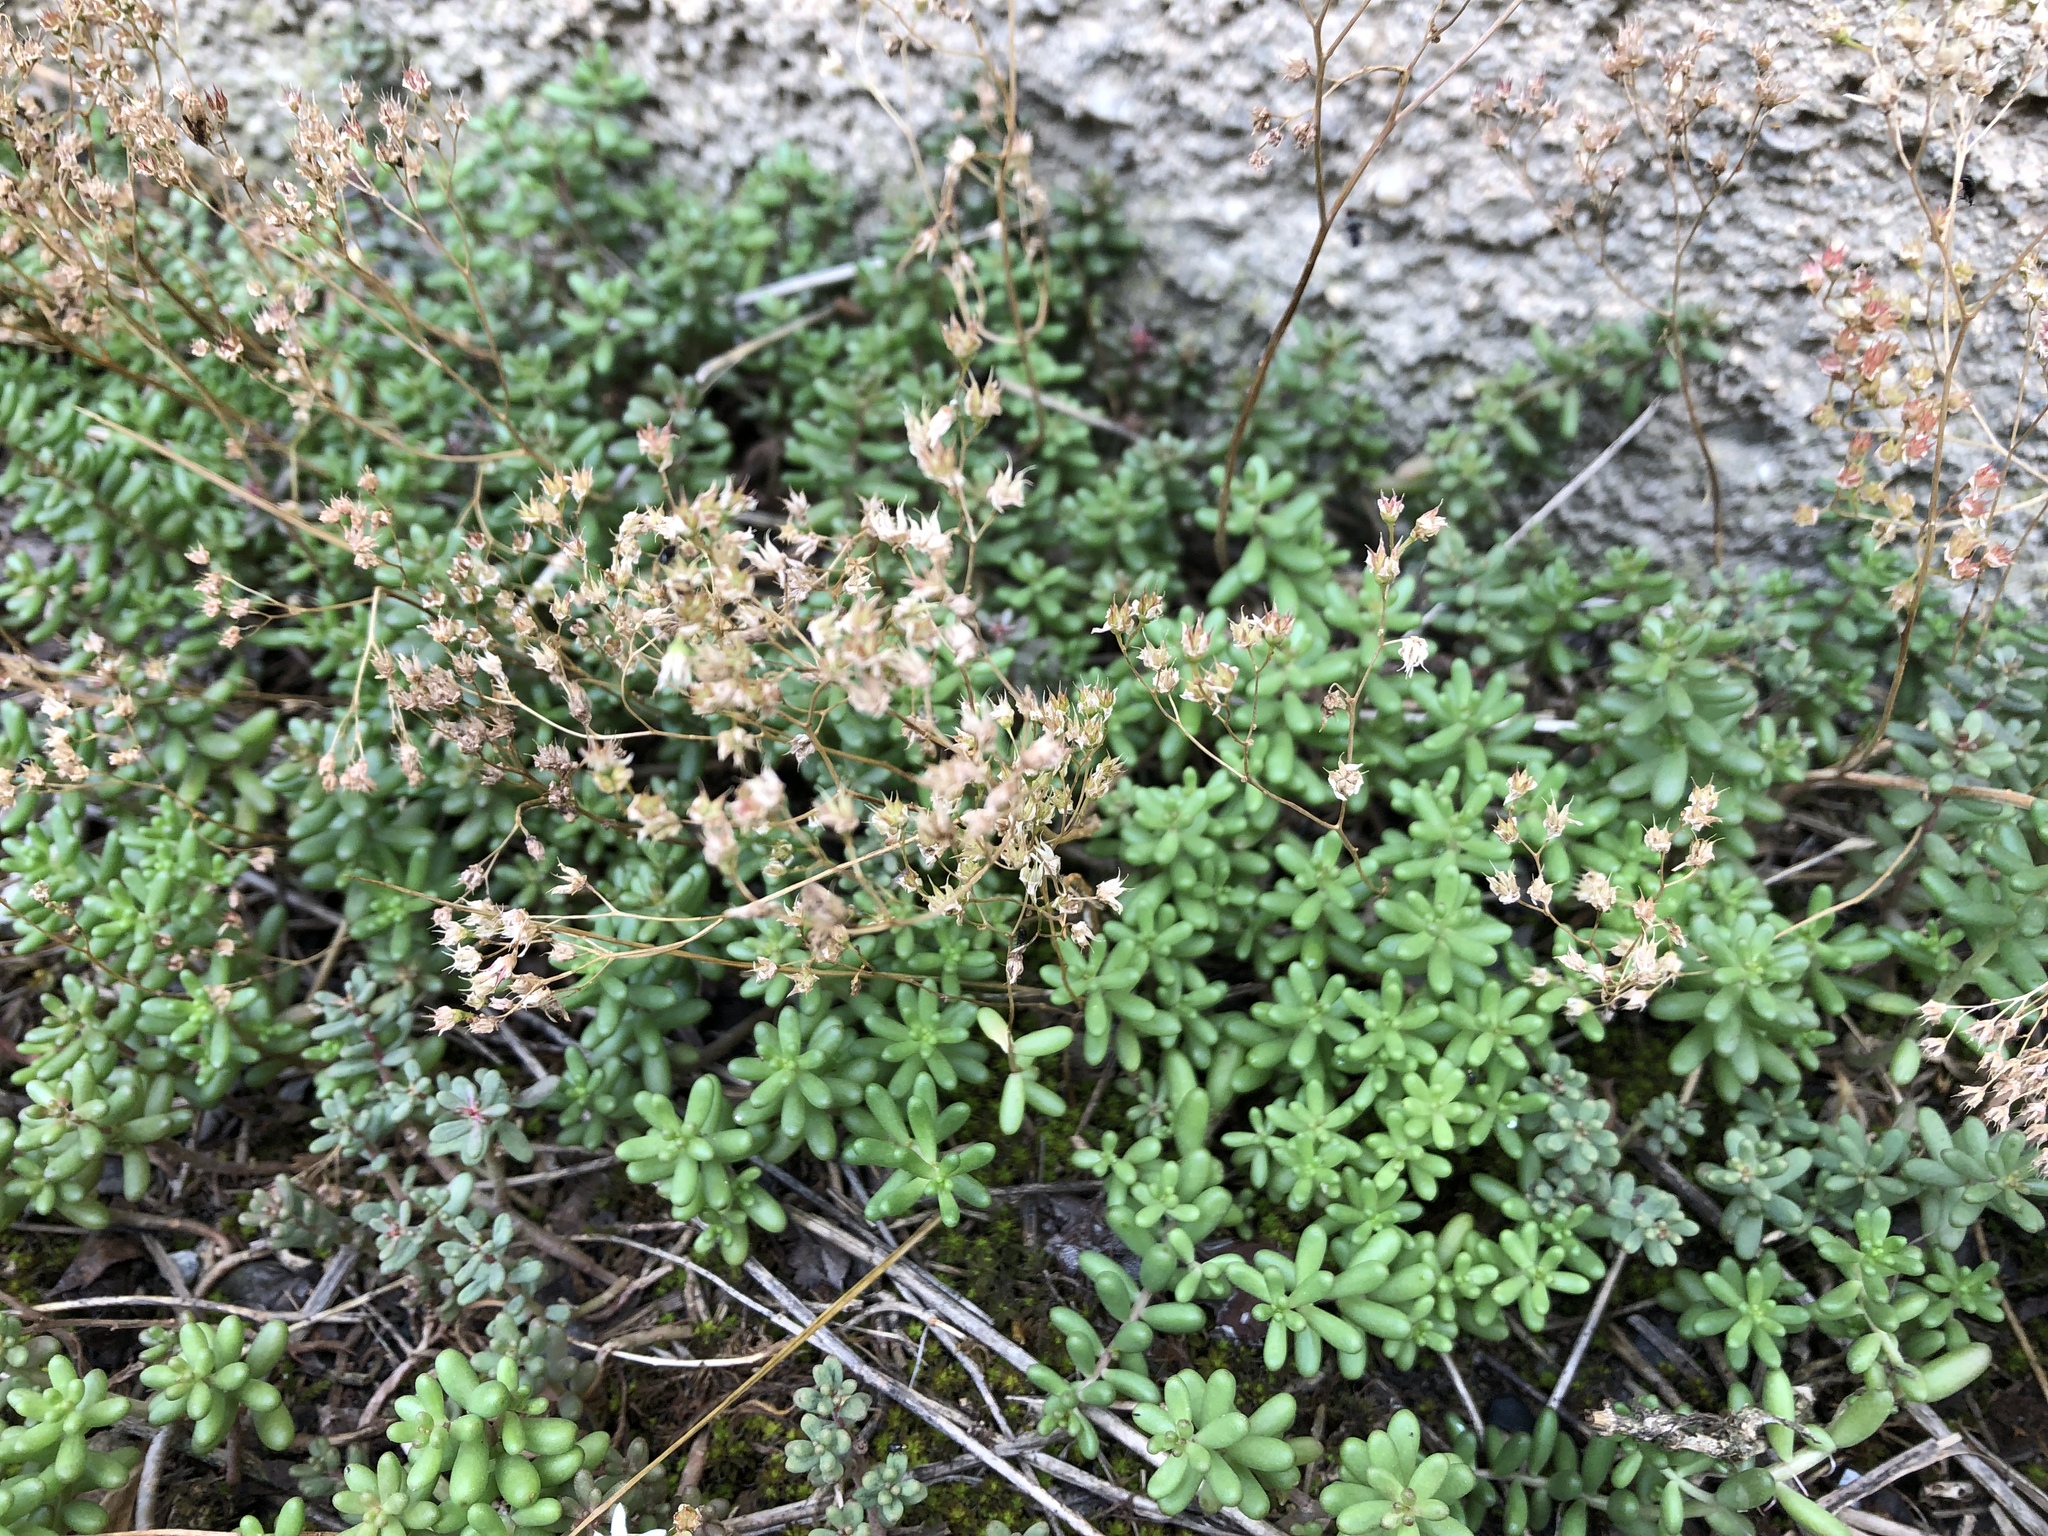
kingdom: Plantae
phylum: Tracheophyta
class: Magnoliopsida
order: Saxifragales
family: Crassulaceae
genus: Sedum
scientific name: Sedum album
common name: White stonecrop
